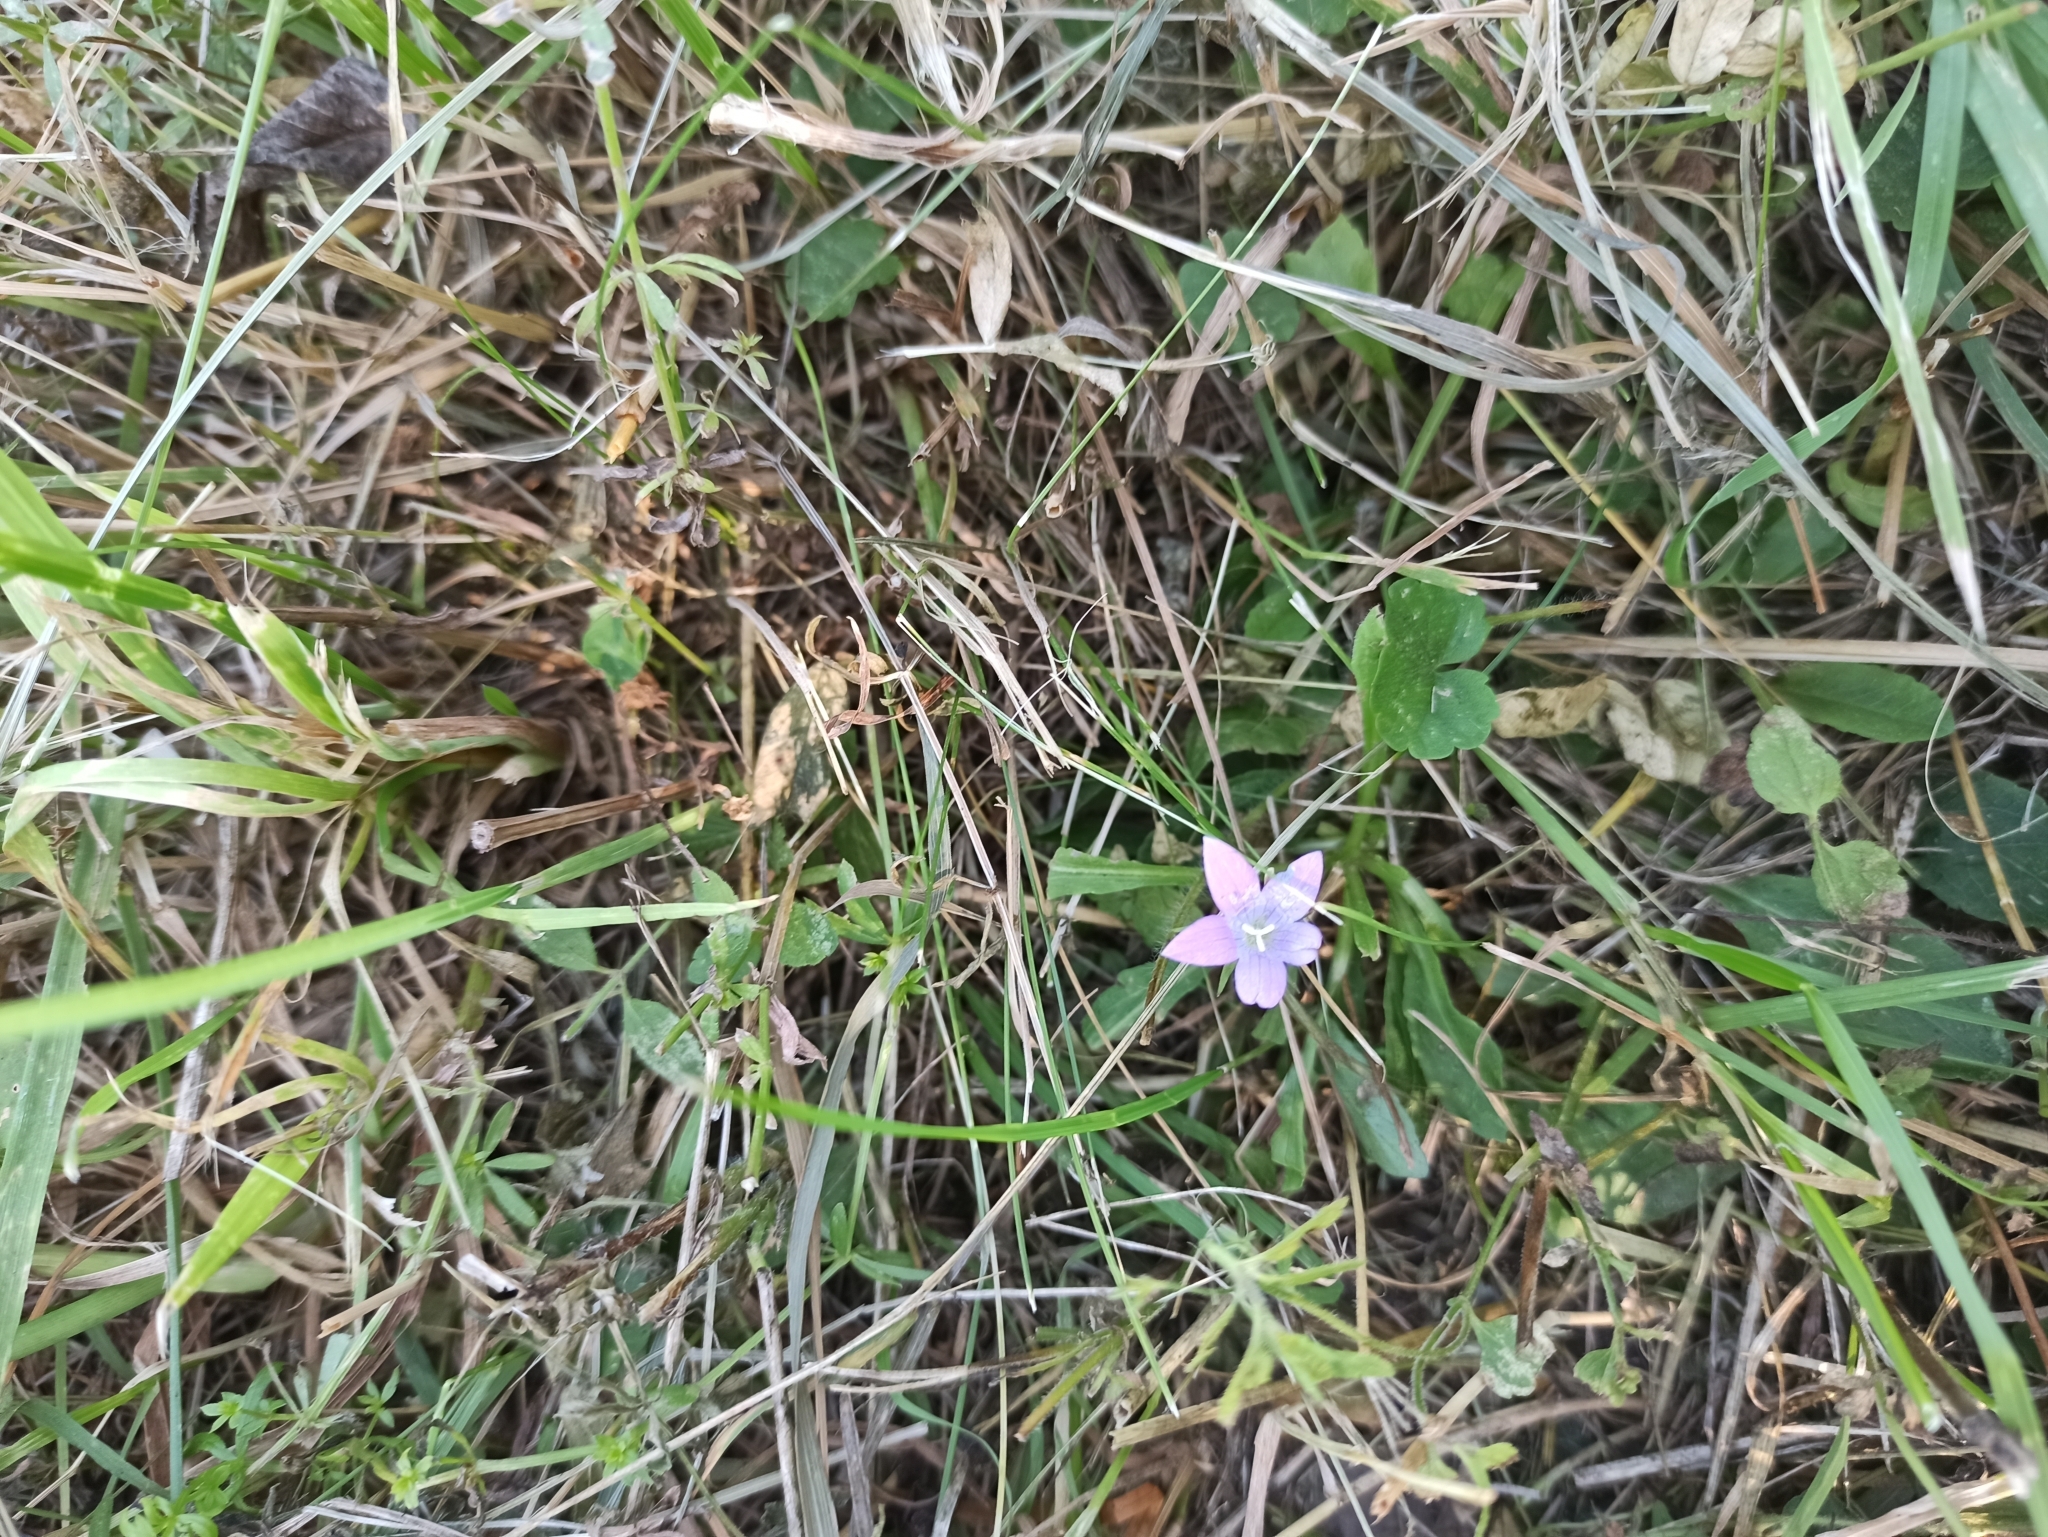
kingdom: Plantae
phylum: Tracheophyta
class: Magnoliopsida
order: Asterales
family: Campanulaceae
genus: Campanula
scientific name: Campanula patula
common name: Spreading bellflower
